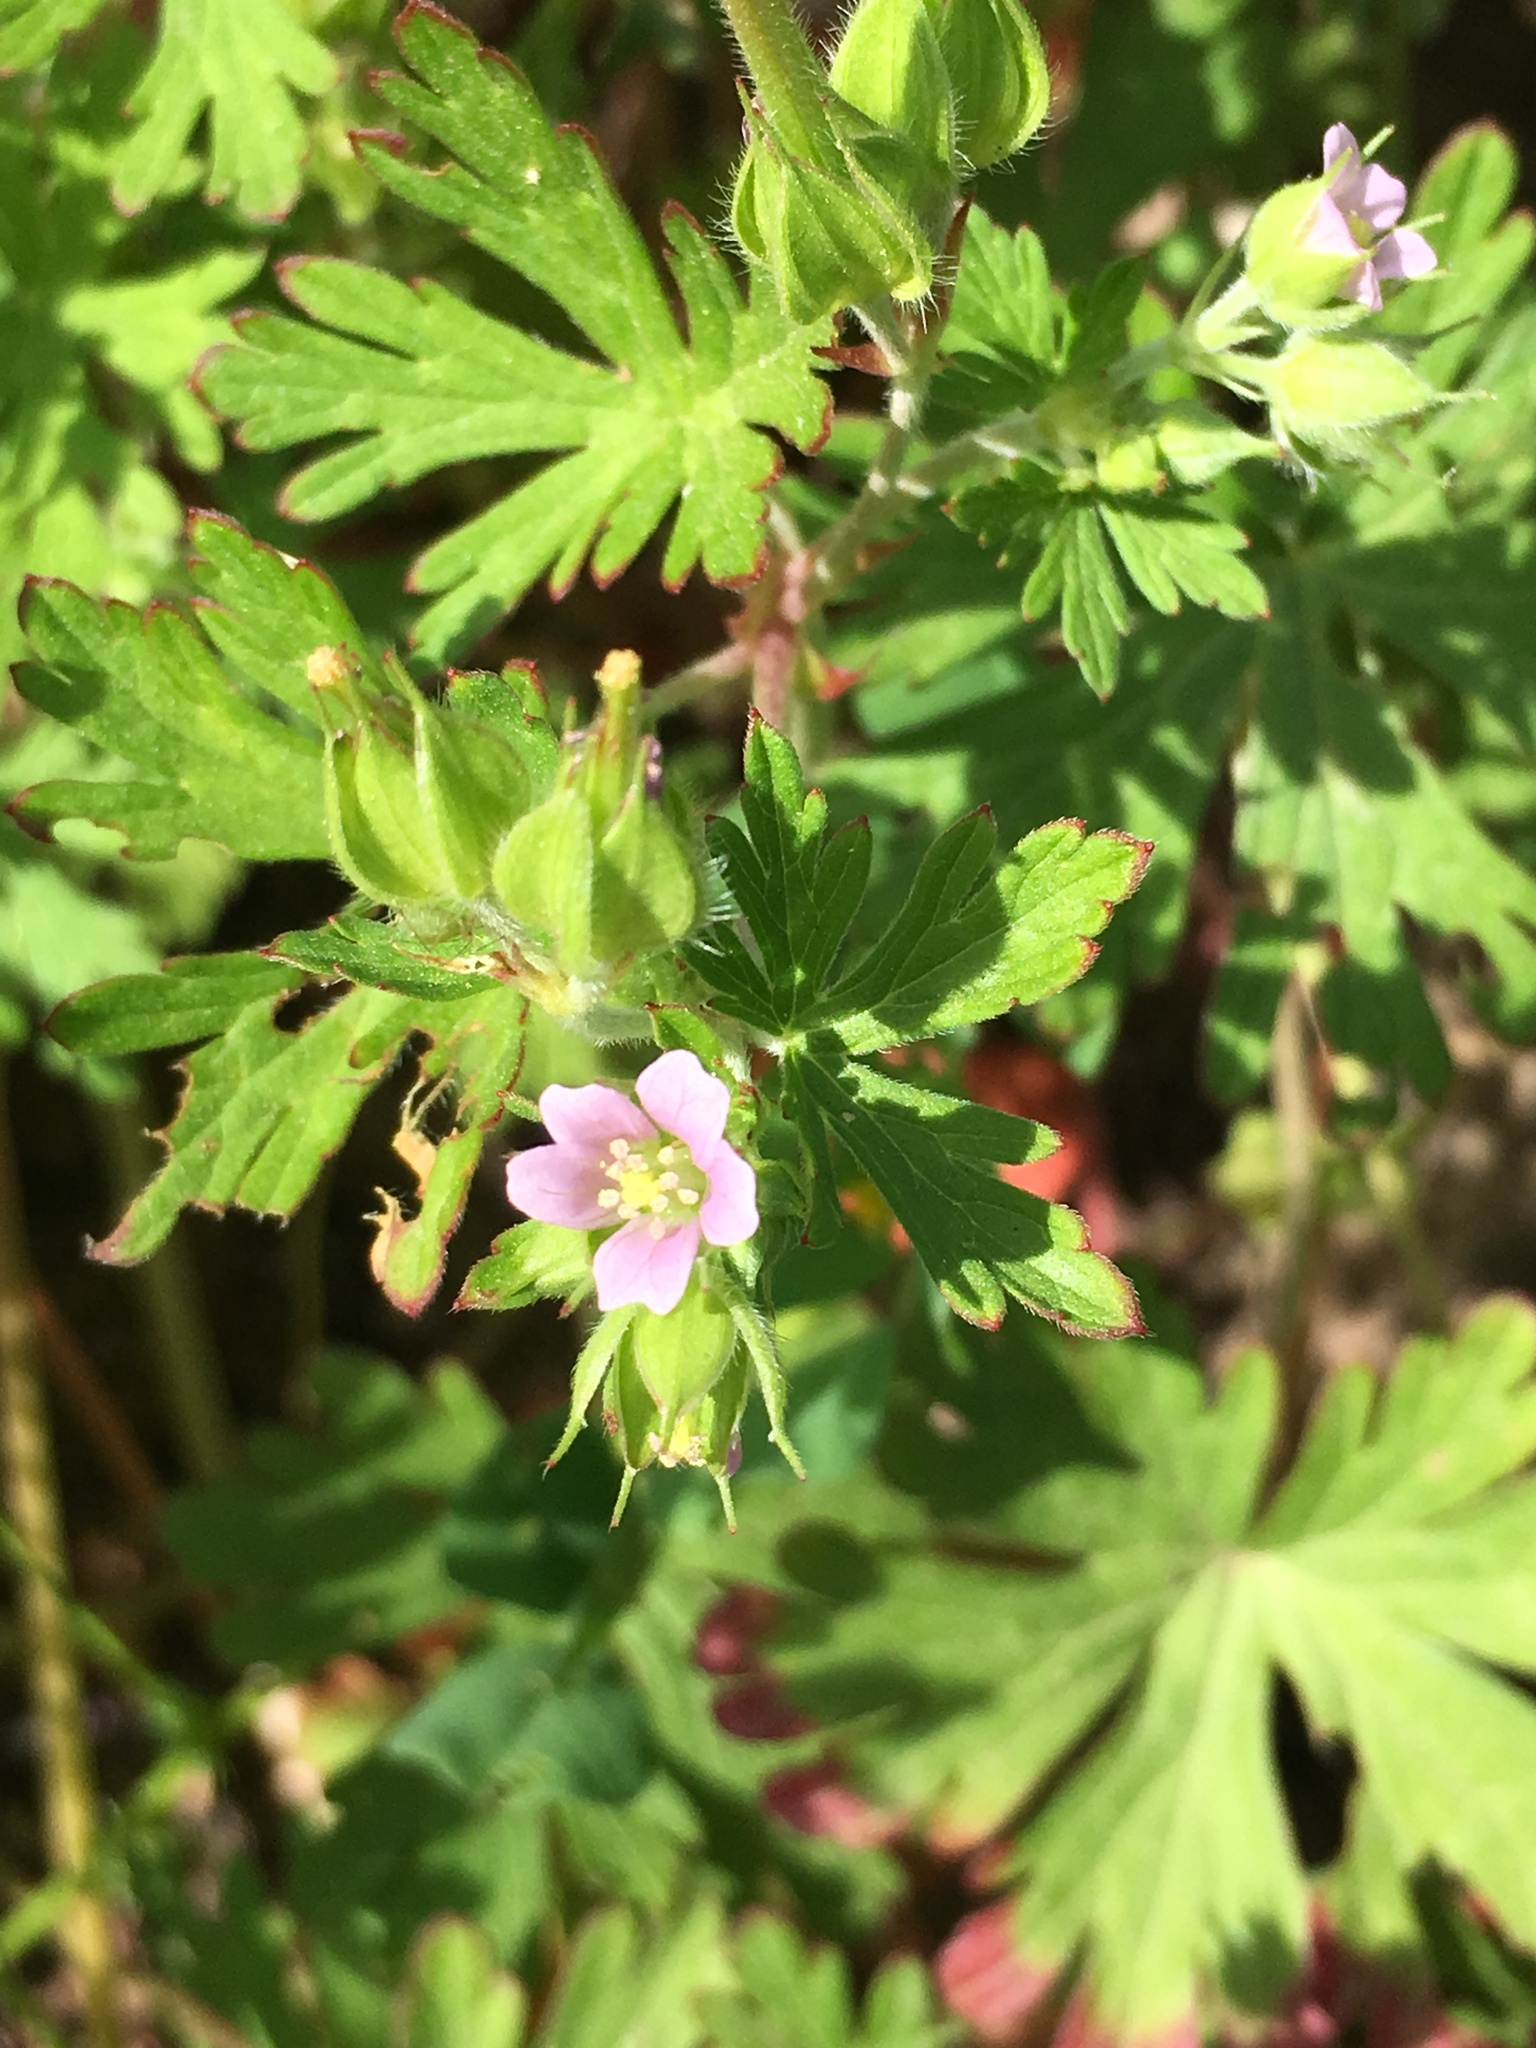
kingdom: Plantae
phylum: Tracheophyta
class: Magnoliopsida
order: Geraniales
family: Geraniaceae
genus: Geranium
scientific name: Geranium carolinianum
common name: Carolina crane's-bill
